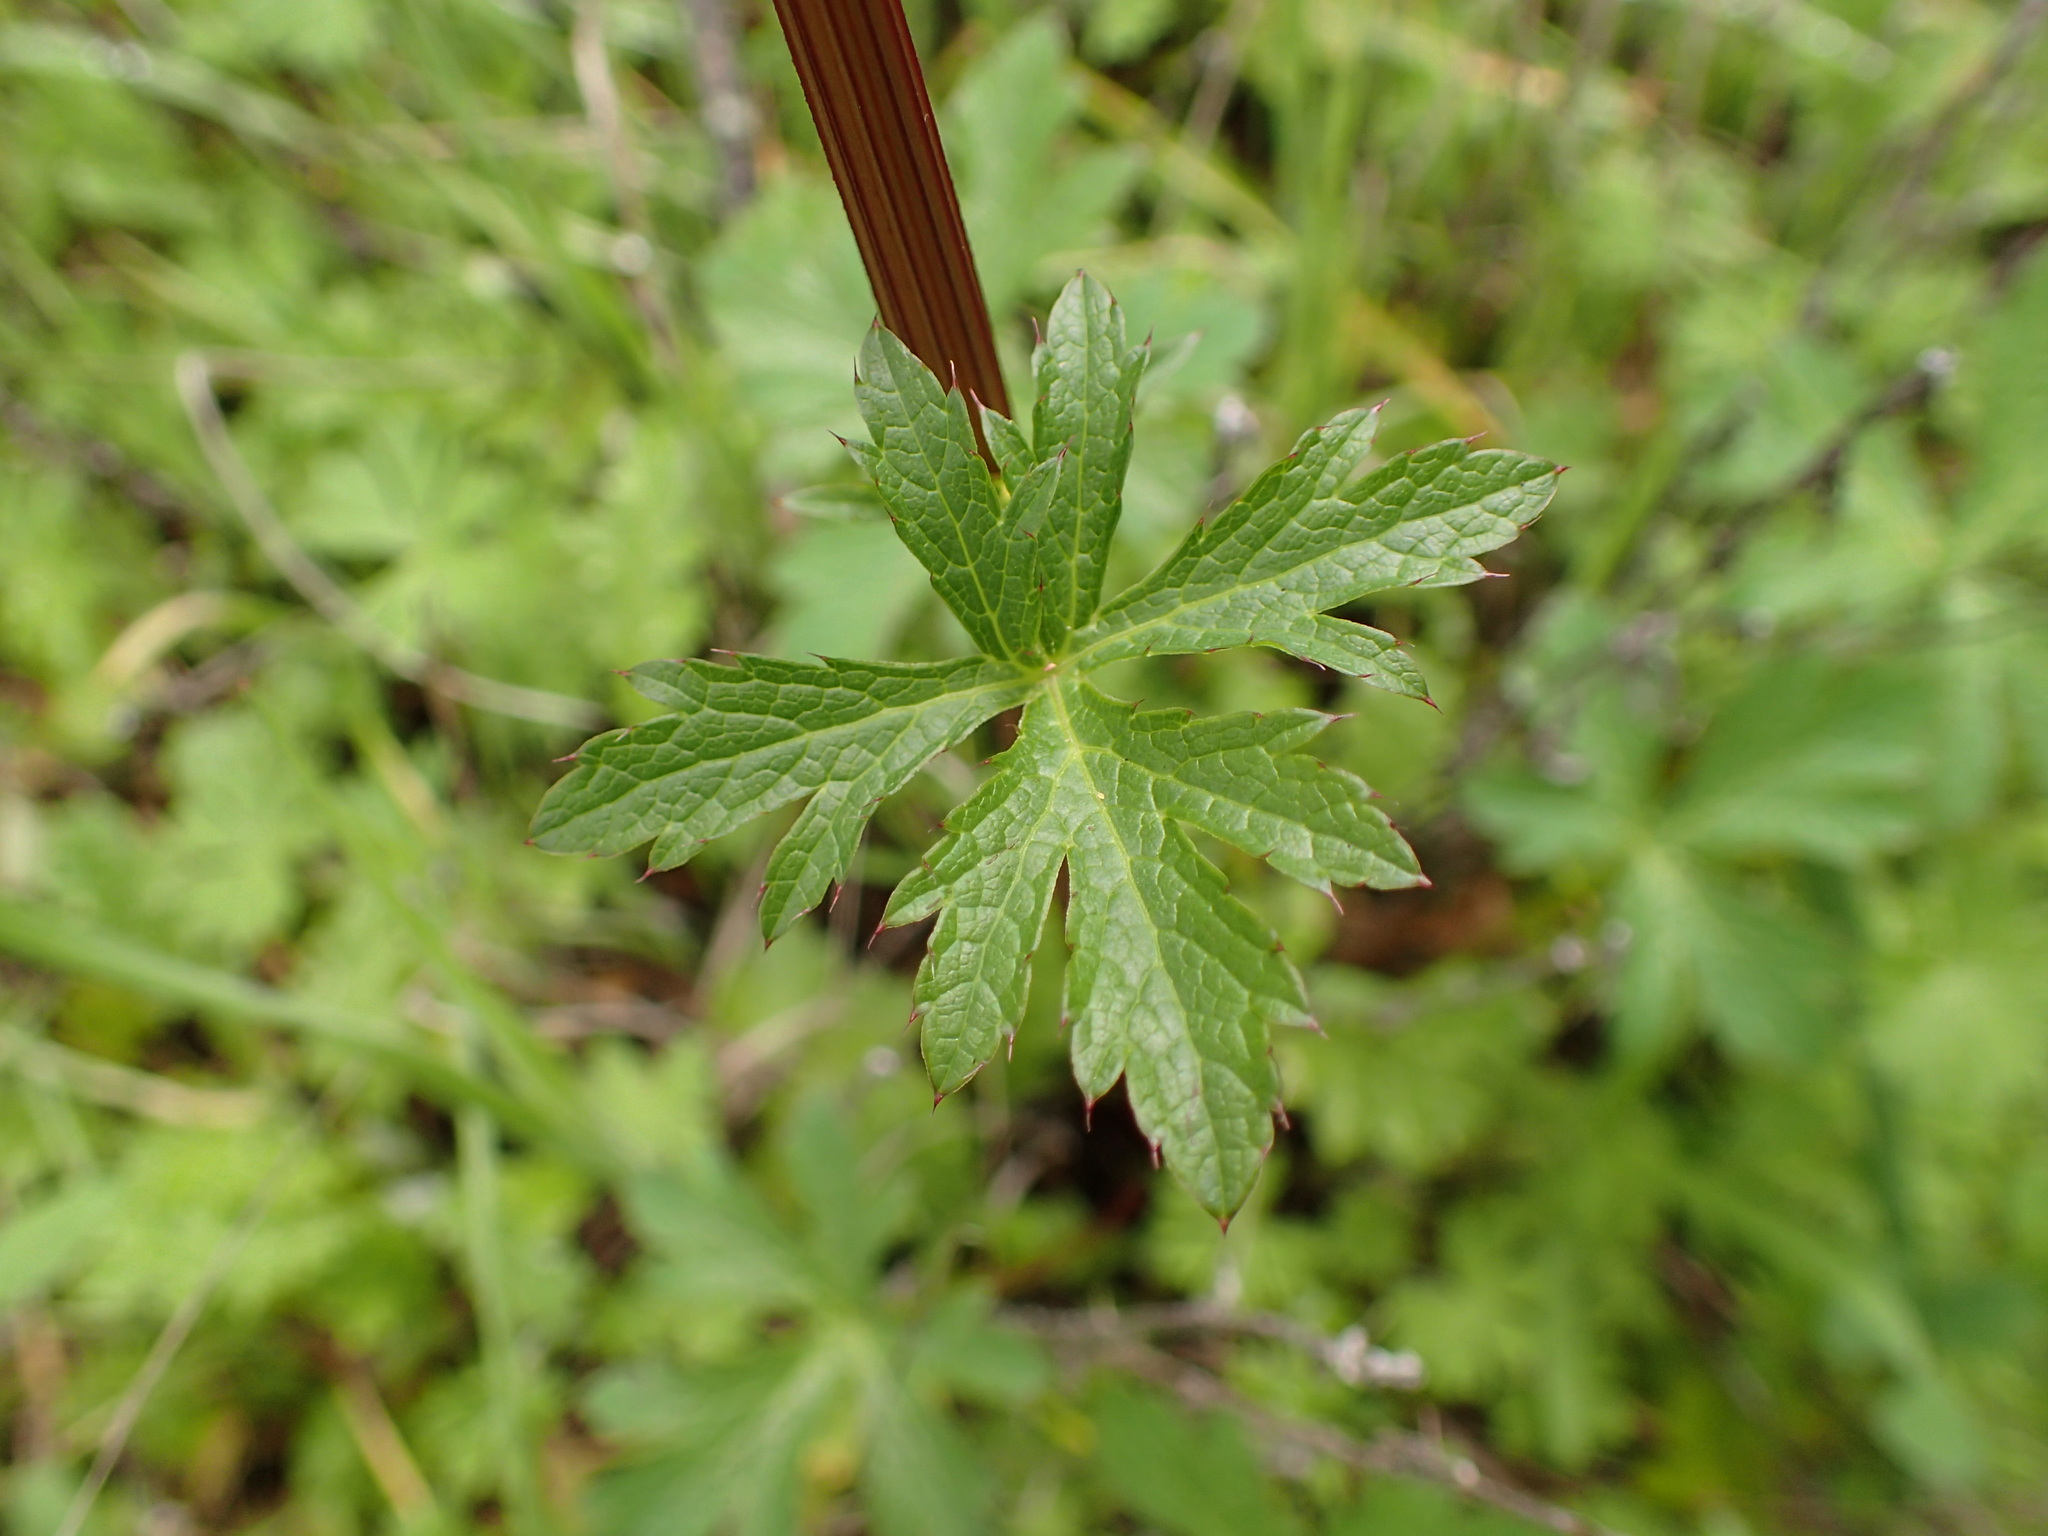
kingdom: Plantae
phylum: Tracheophyta
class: Magnoliopsida
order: Apiales
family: Apiaceae
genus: Sanicula
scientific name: Sanicula crassicaulis
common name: Western snakeroot
